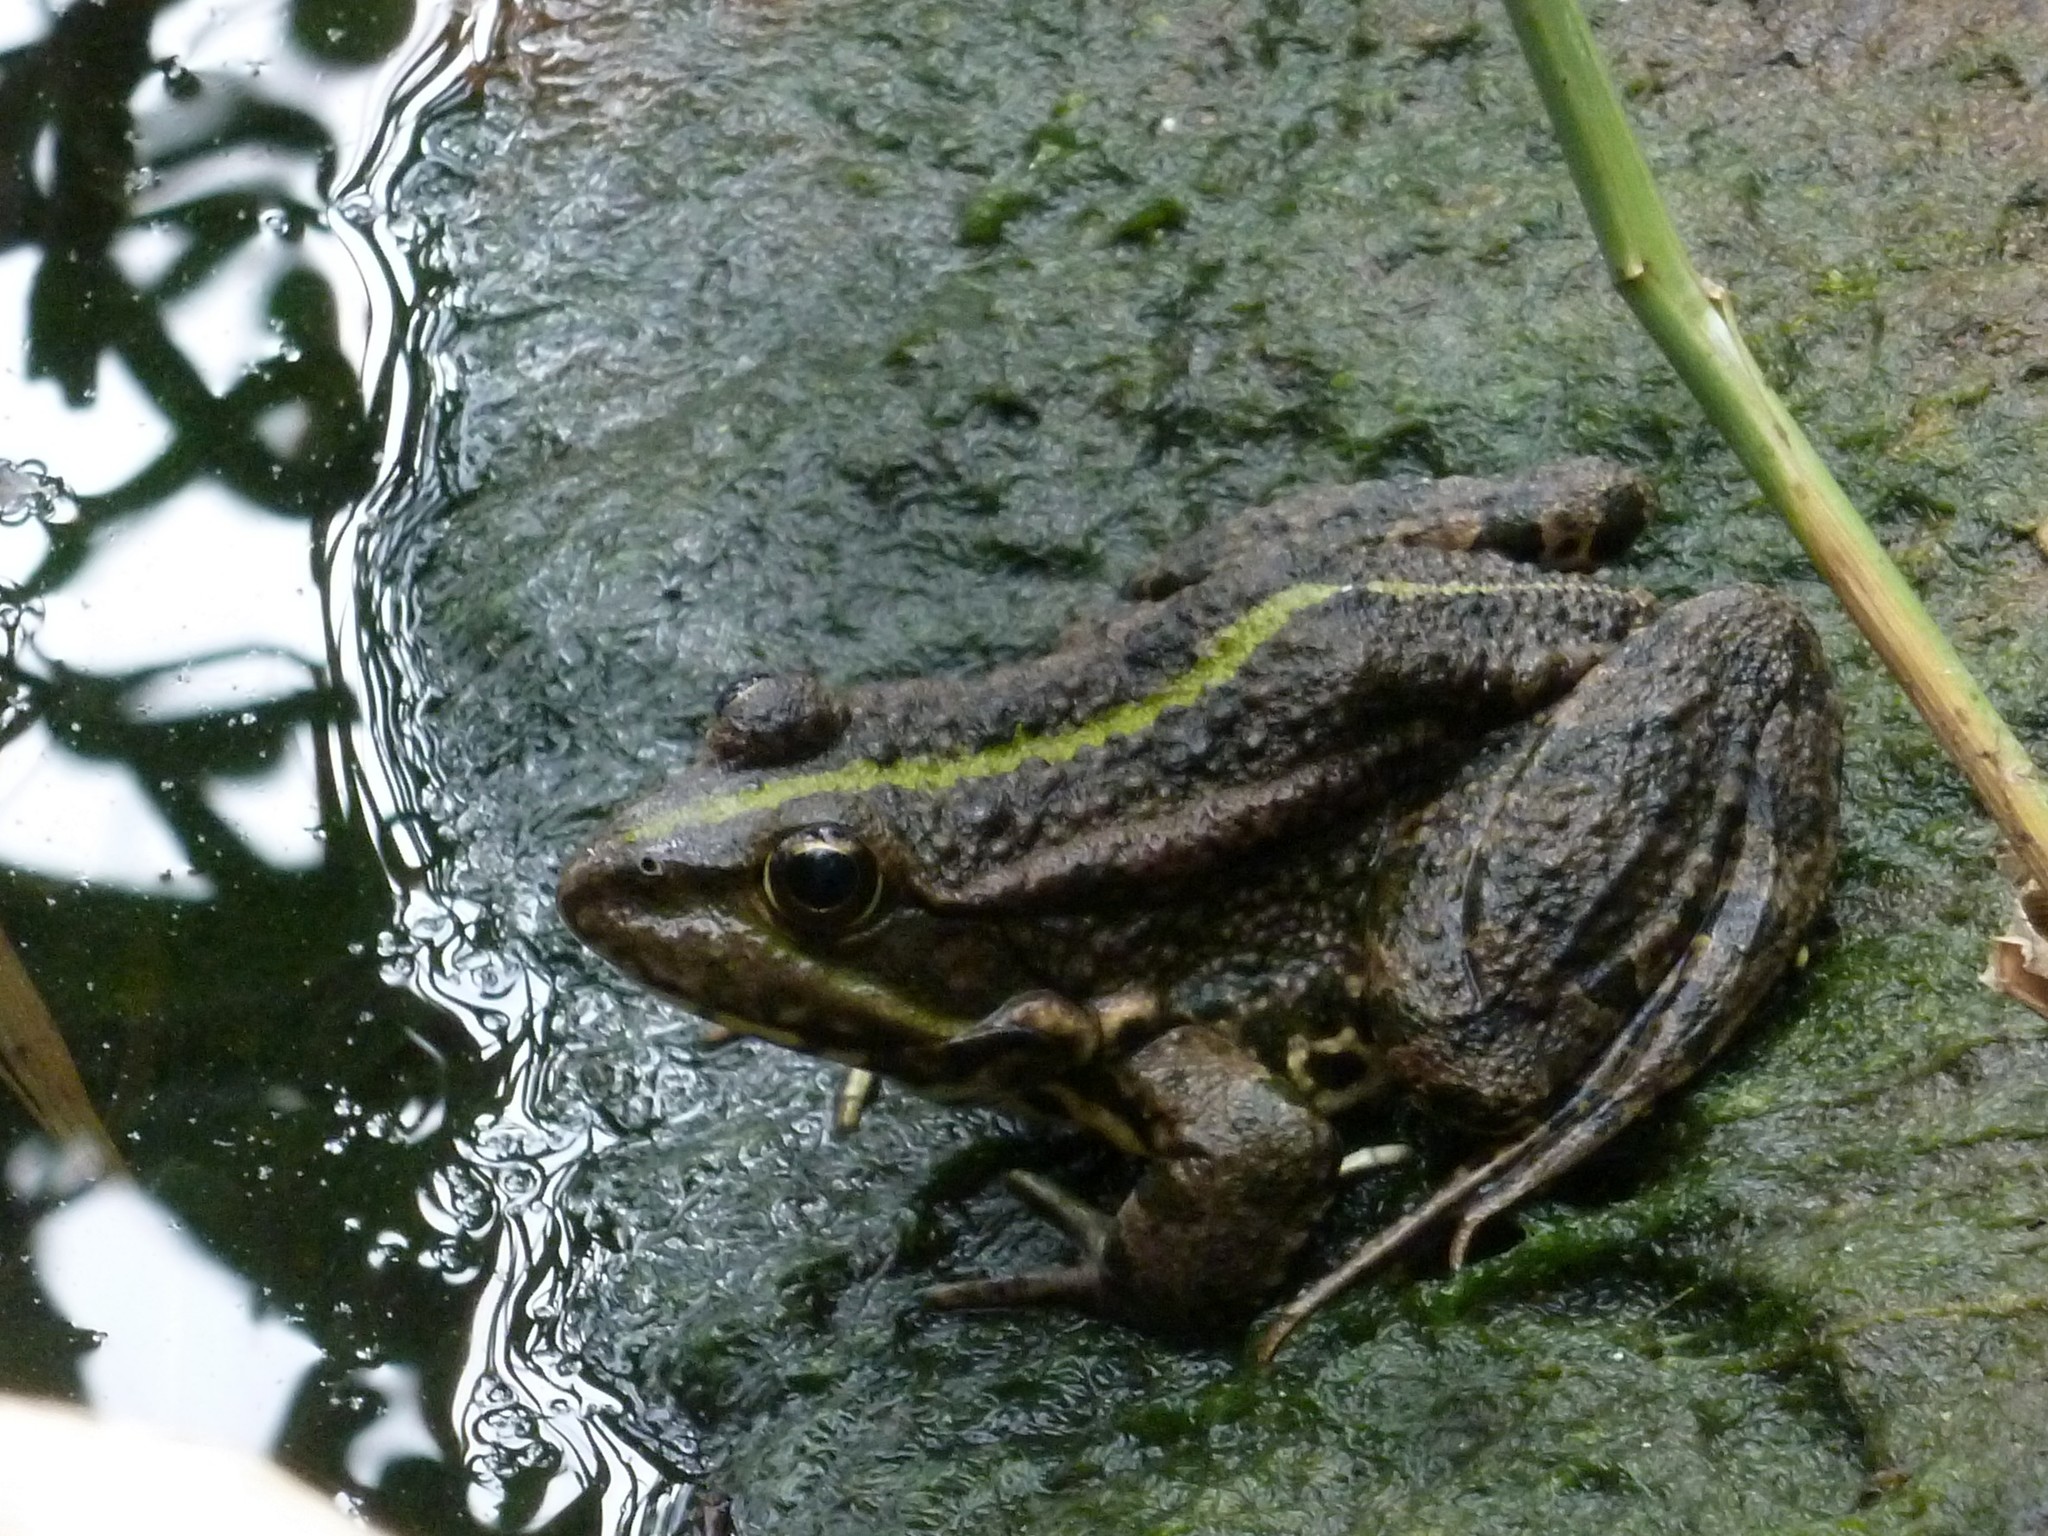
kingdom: Animalia
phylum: Chordata
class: Amphibia
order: Anura
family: Ranidae
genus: Pelophylax
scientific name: Pelophylax ridibundus
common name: Marsh frog
